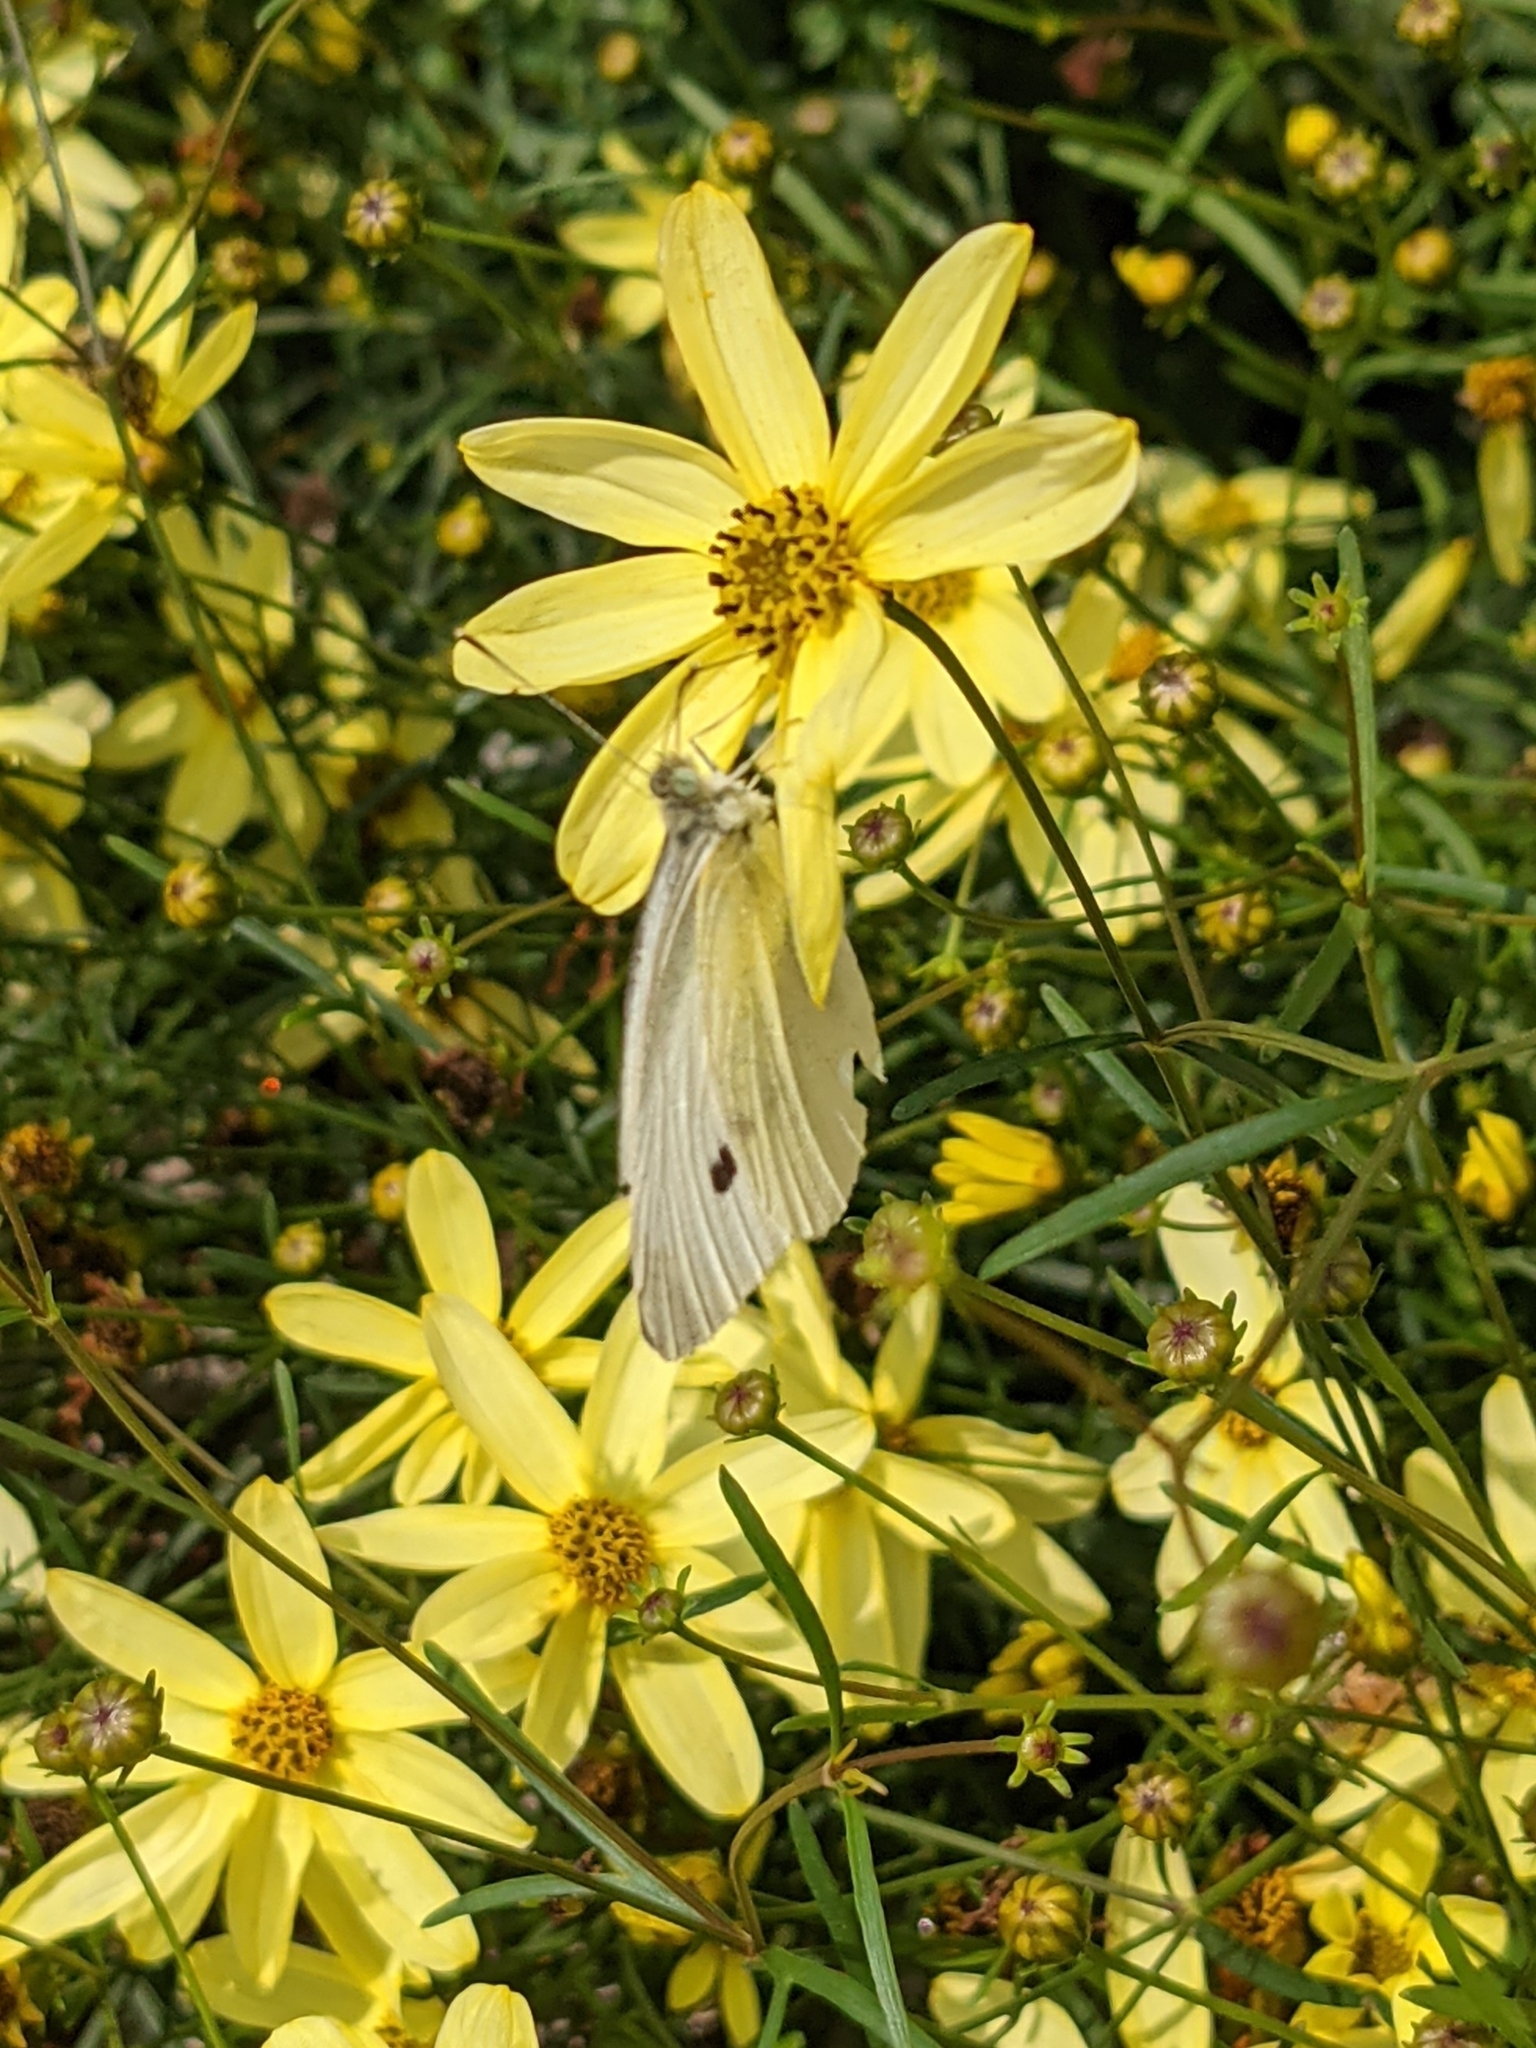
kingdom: Animalia
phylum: Arthropoda
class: Insecta
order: Lepidoptera
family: Pieridae
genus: Pieris
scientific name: Pieris rapae
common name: Small white
